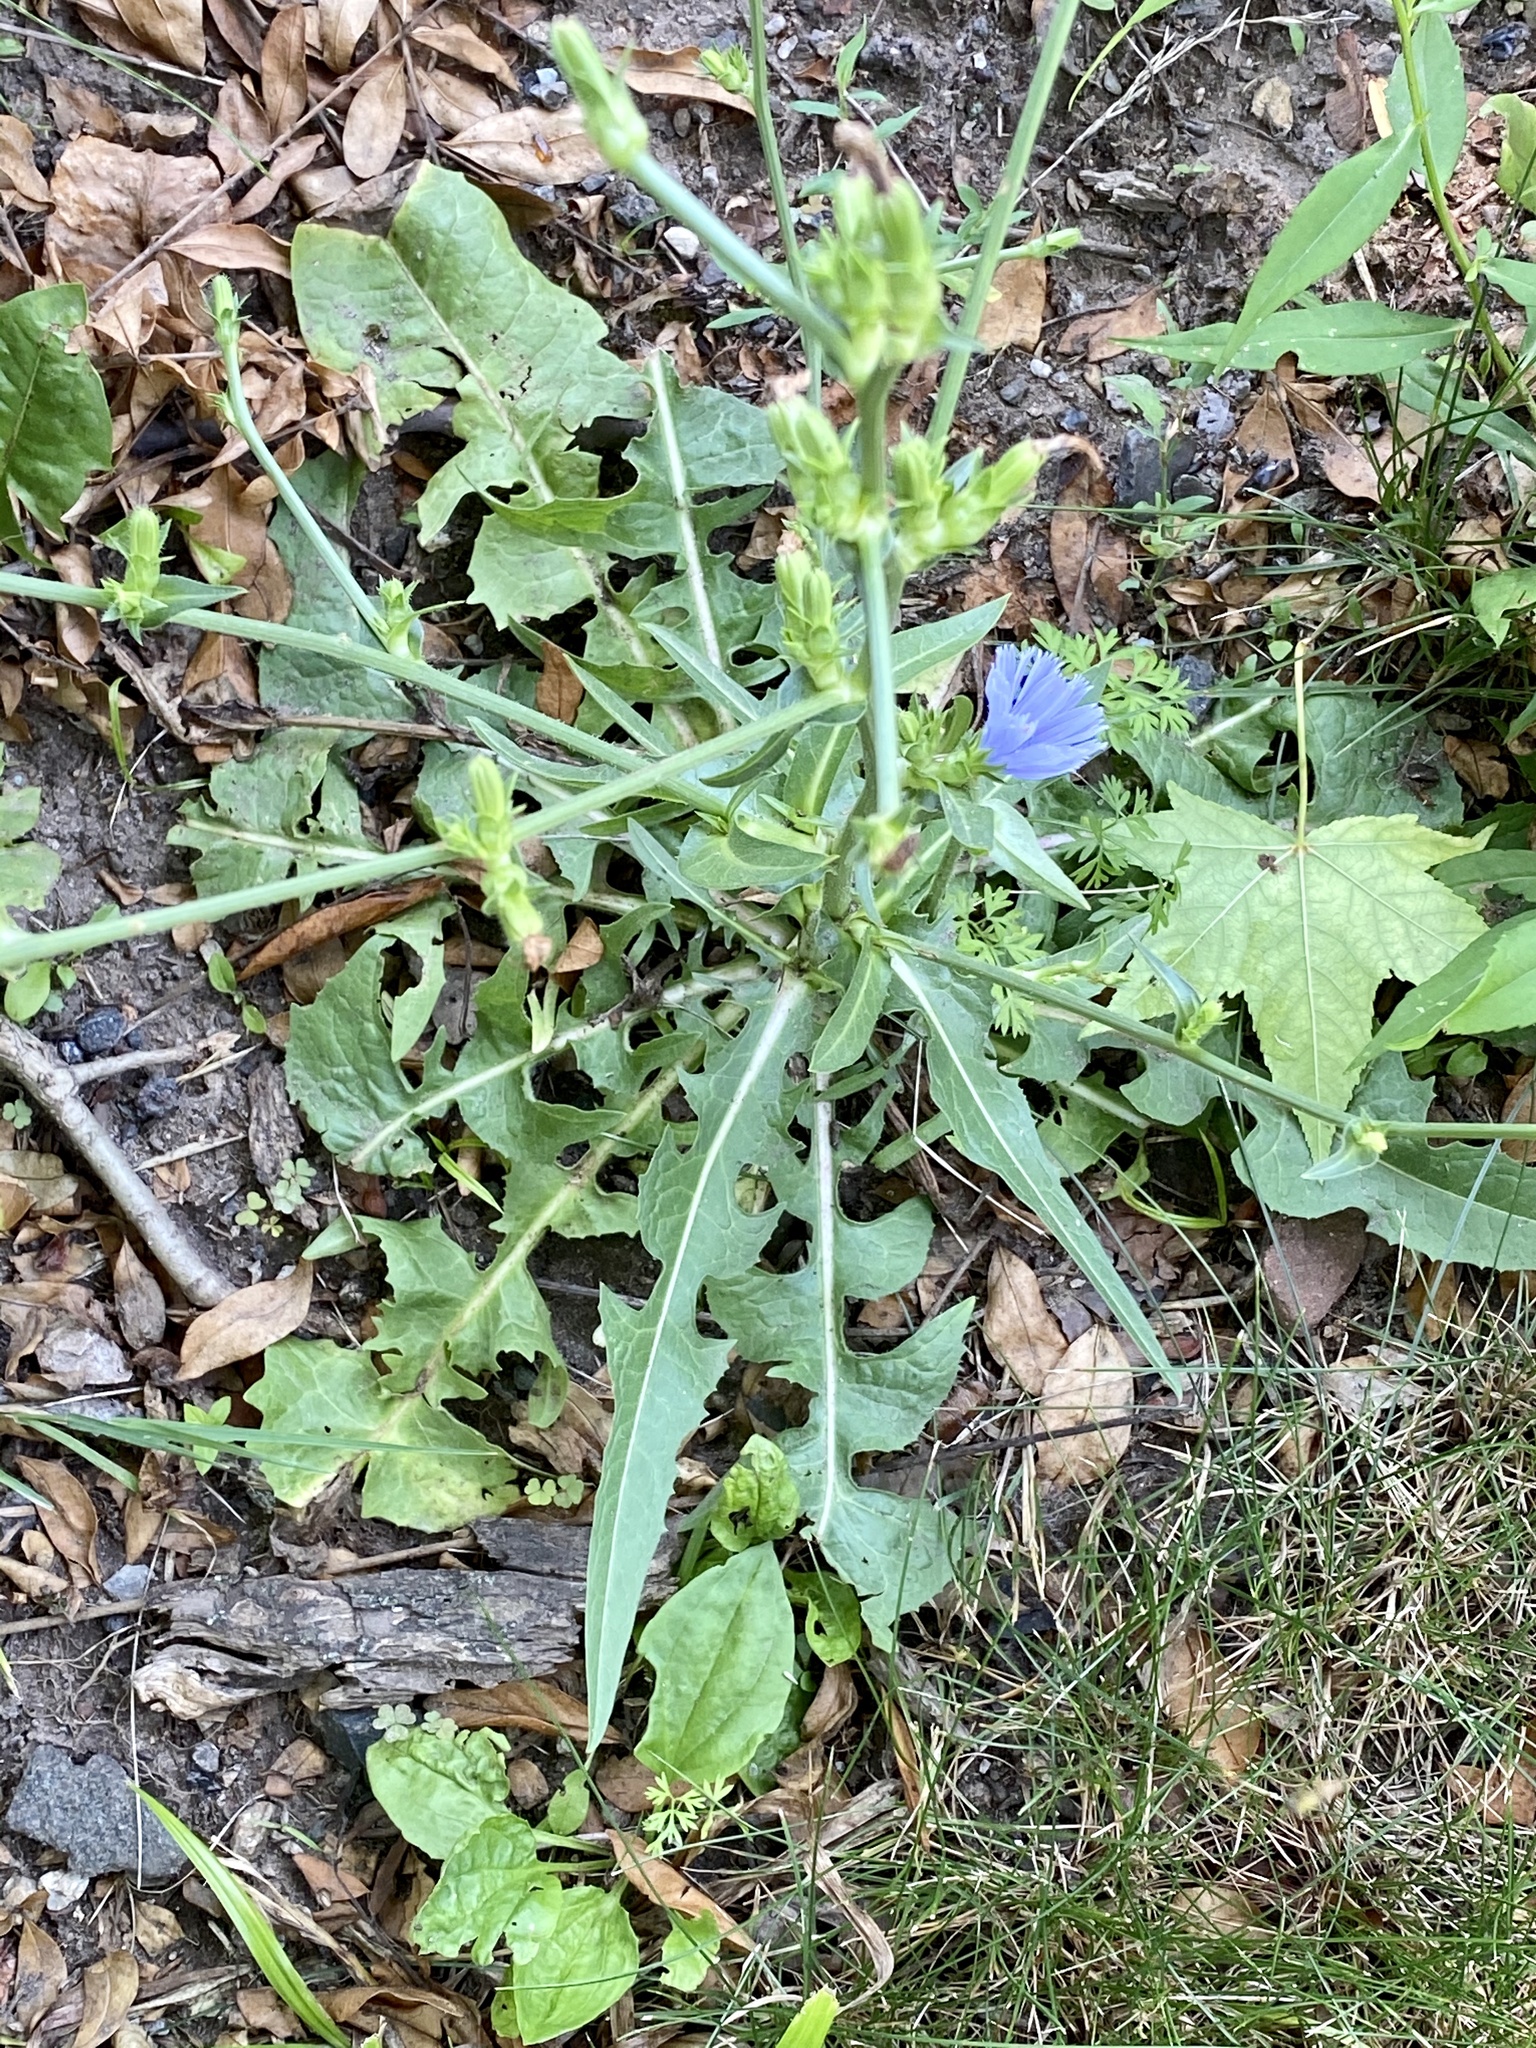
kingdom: Plantae
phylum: Tracheophyta
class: Magnoliopsida
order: Asterales
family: Asteraceae
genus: Cichorium
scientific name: Cichorium intybus
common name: Chicory
